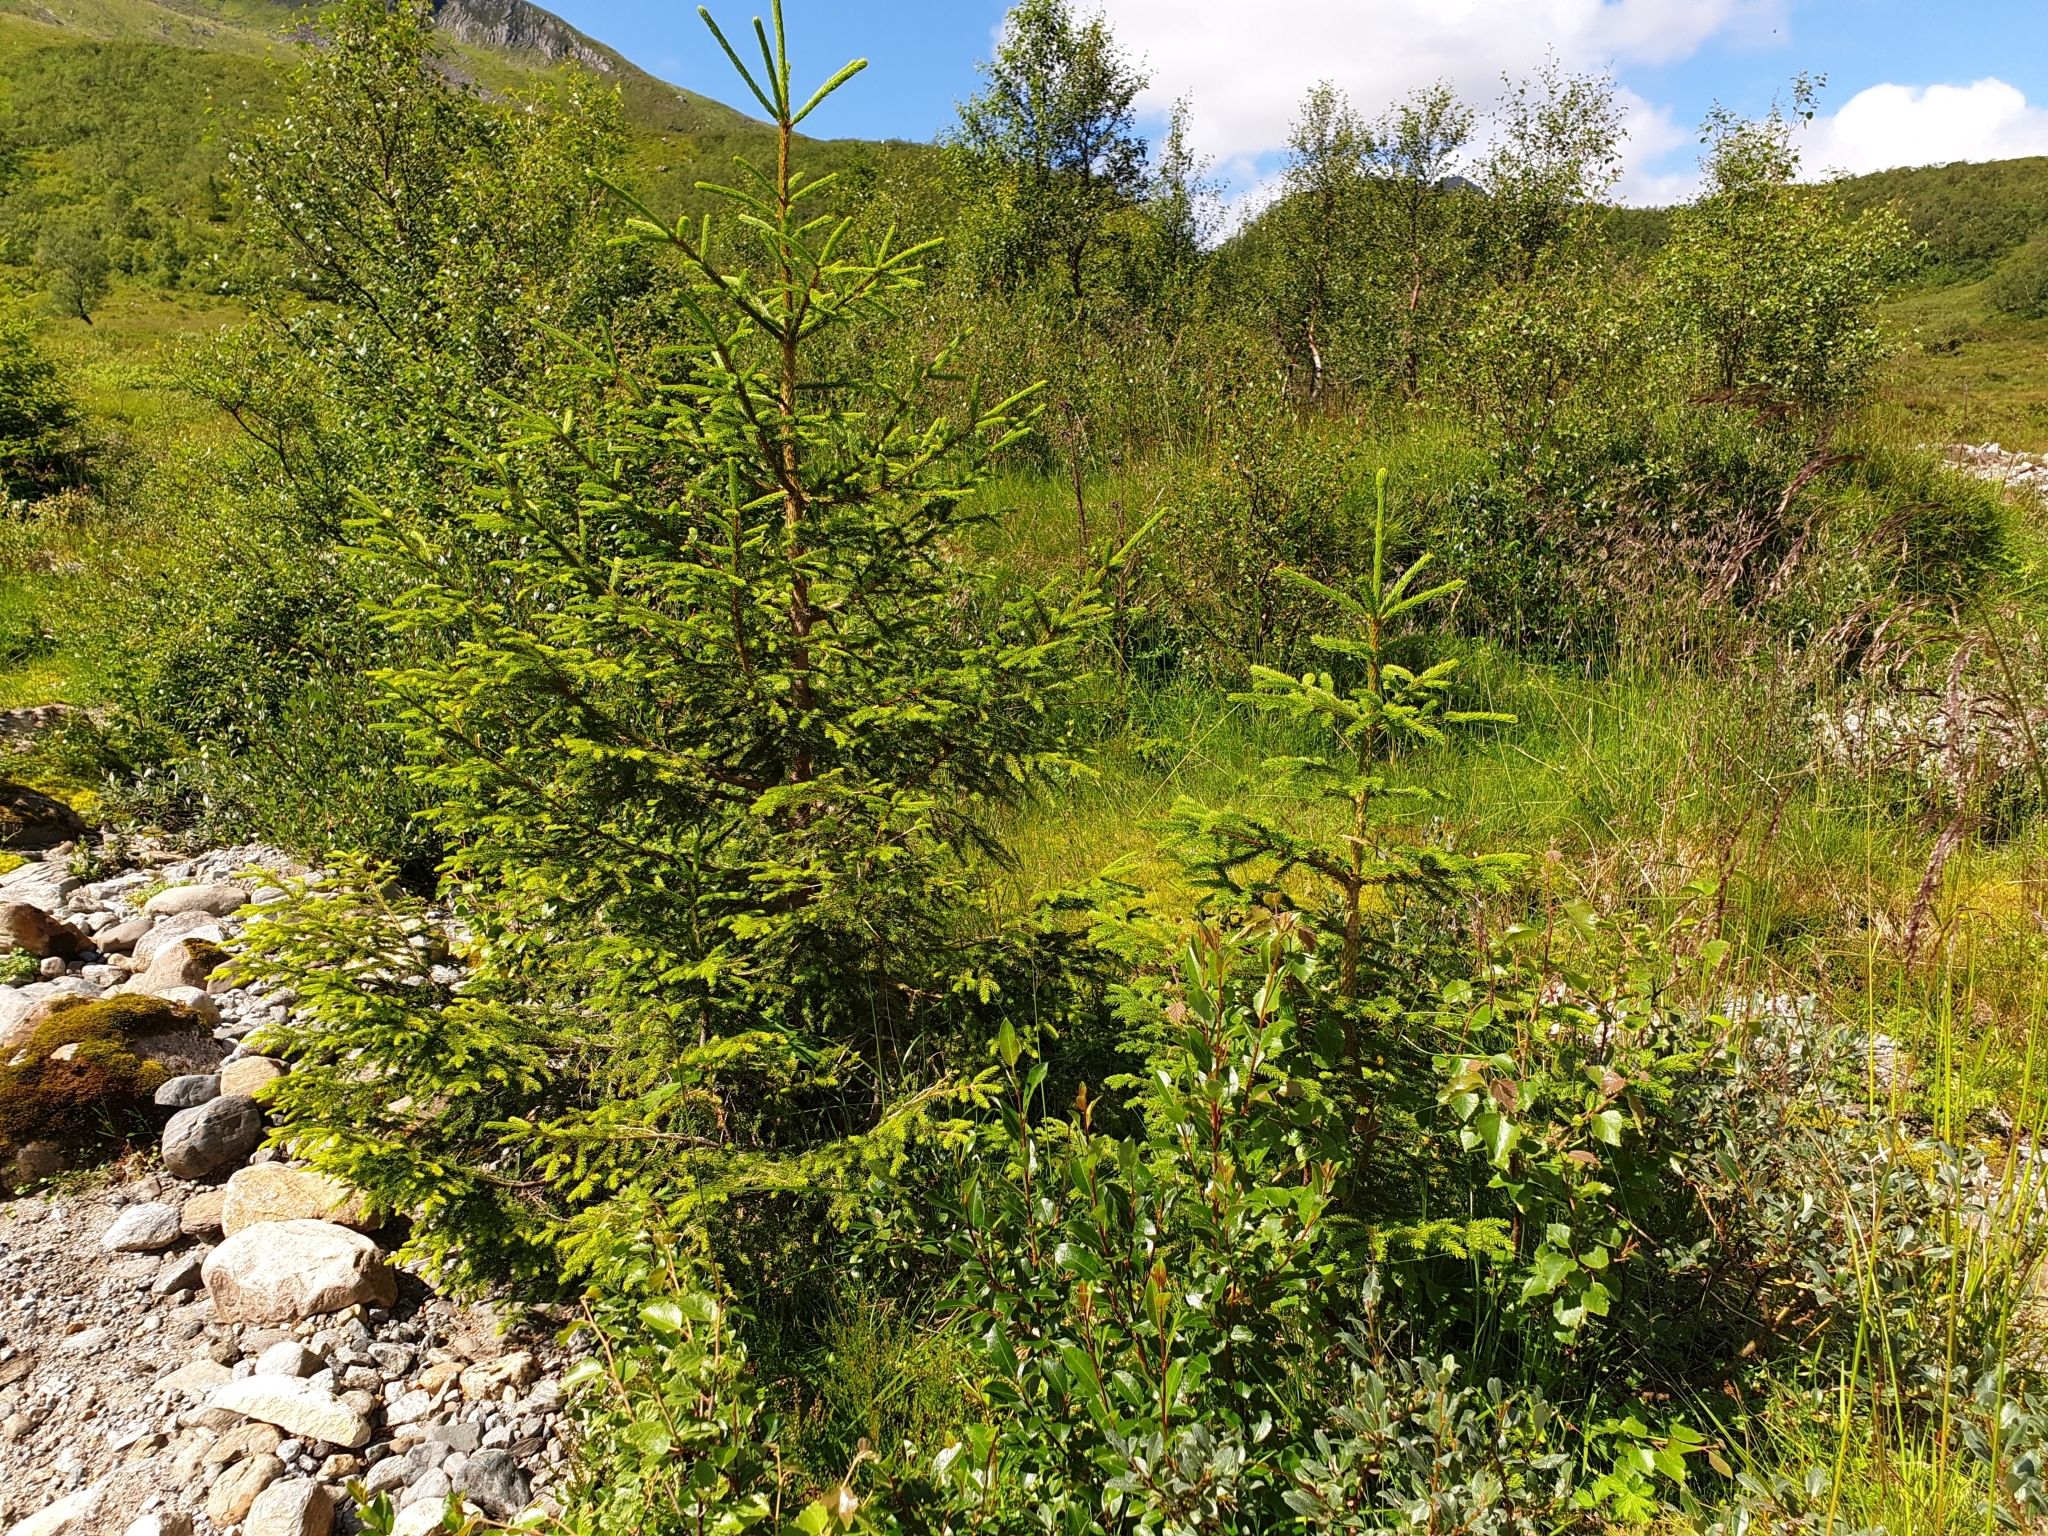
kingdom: Plantae
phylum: Tracheophyta
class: Pinopsida
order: Pinales
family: Pinaceae
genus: Picea
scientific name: Picea abies
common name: Norway spruce
